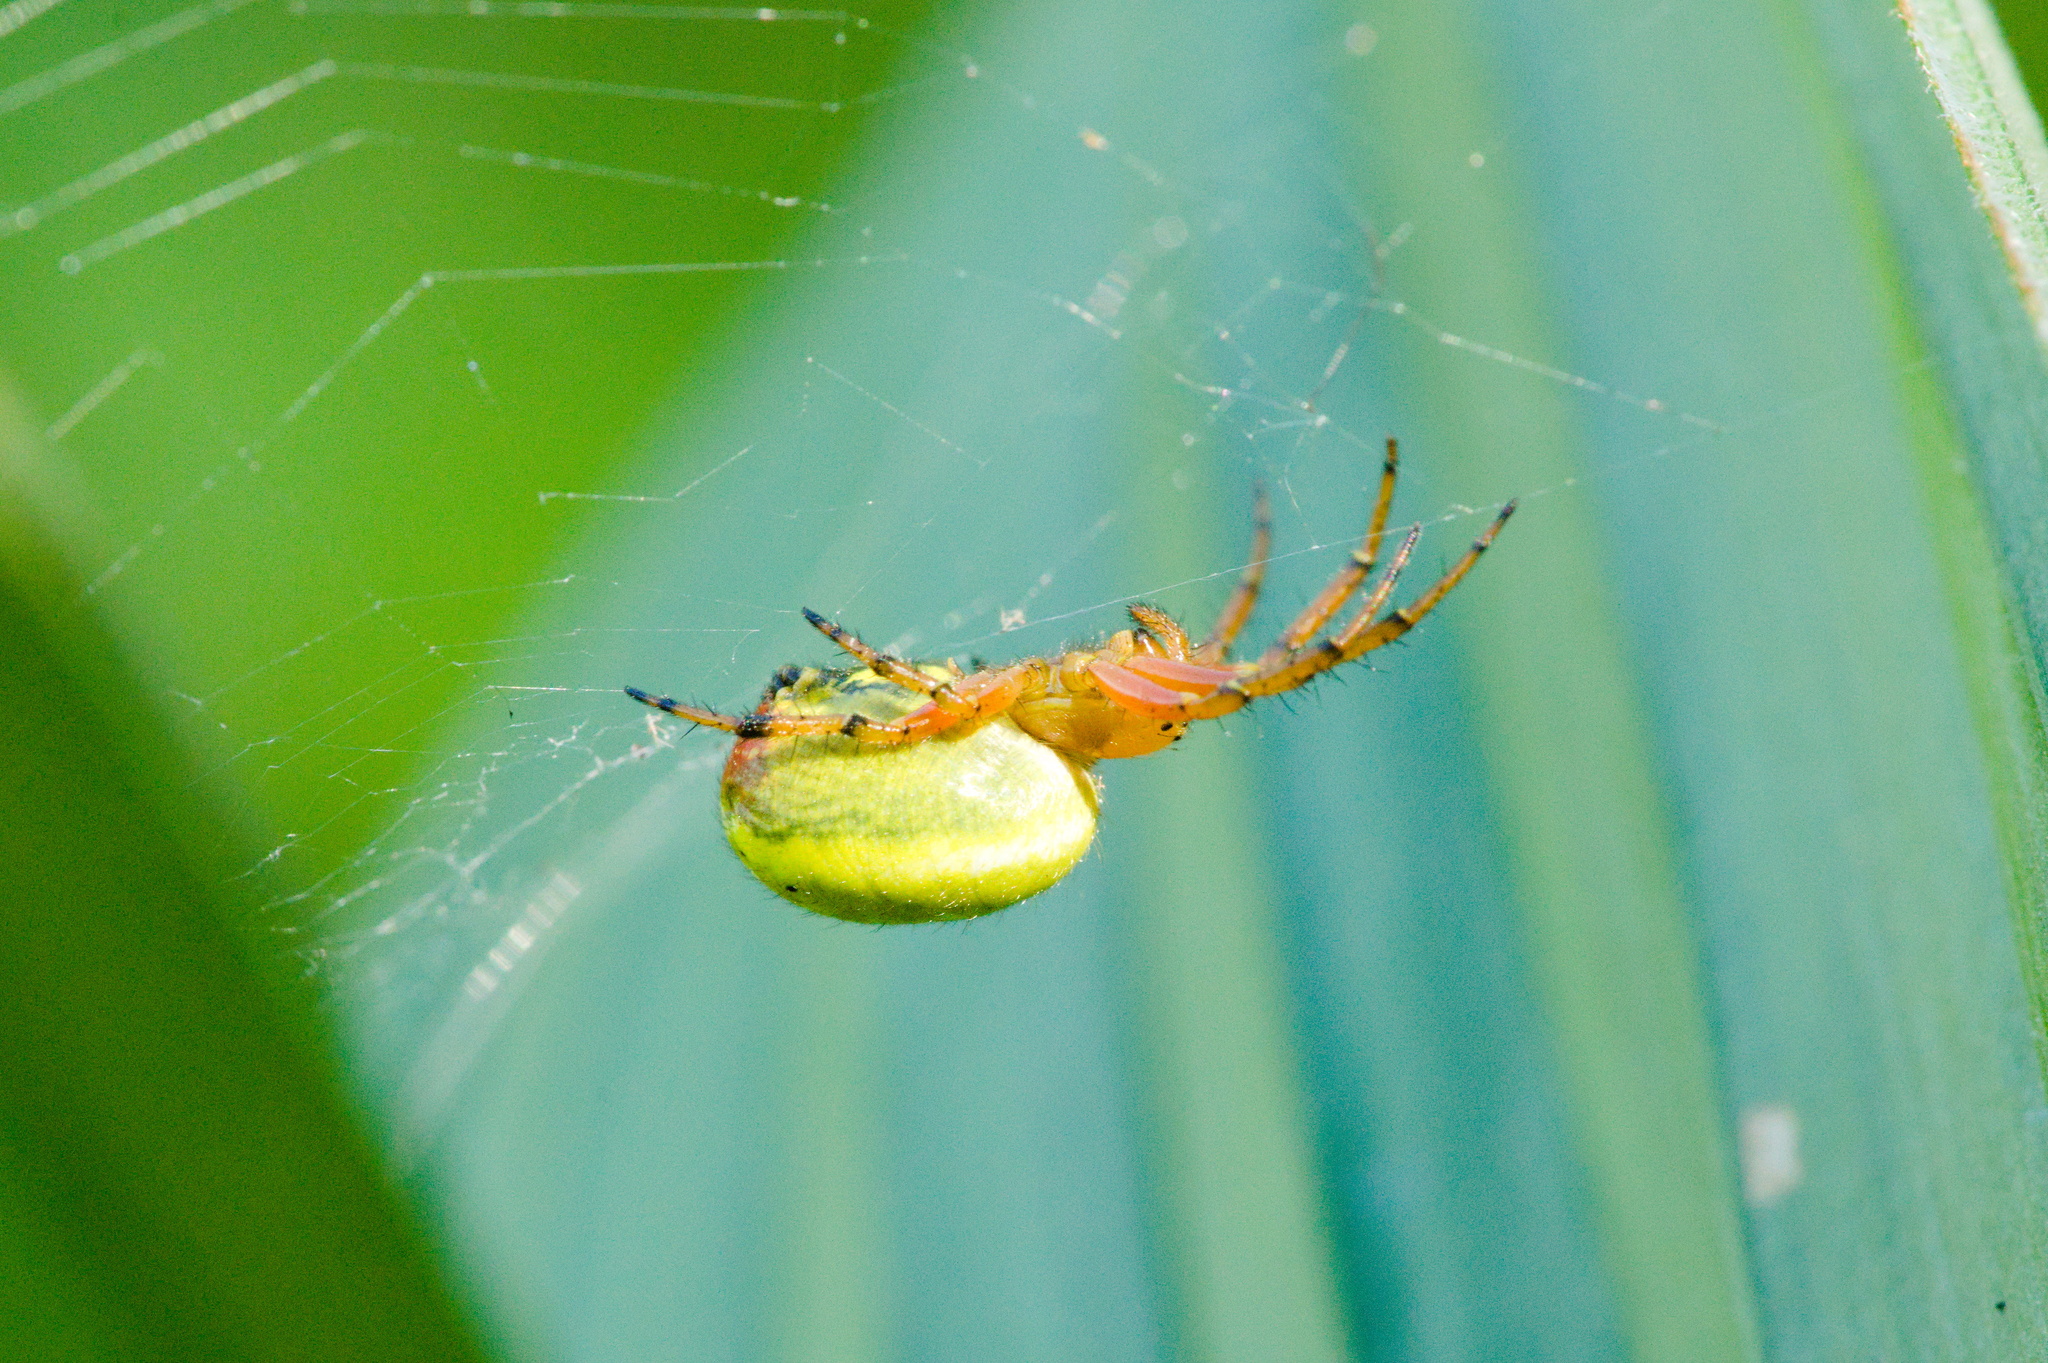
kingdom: Animalia
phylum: Arthropoda
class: Arachnida
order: Araneae
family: Araneidae
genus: Araniella
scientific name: Araniella alpica
